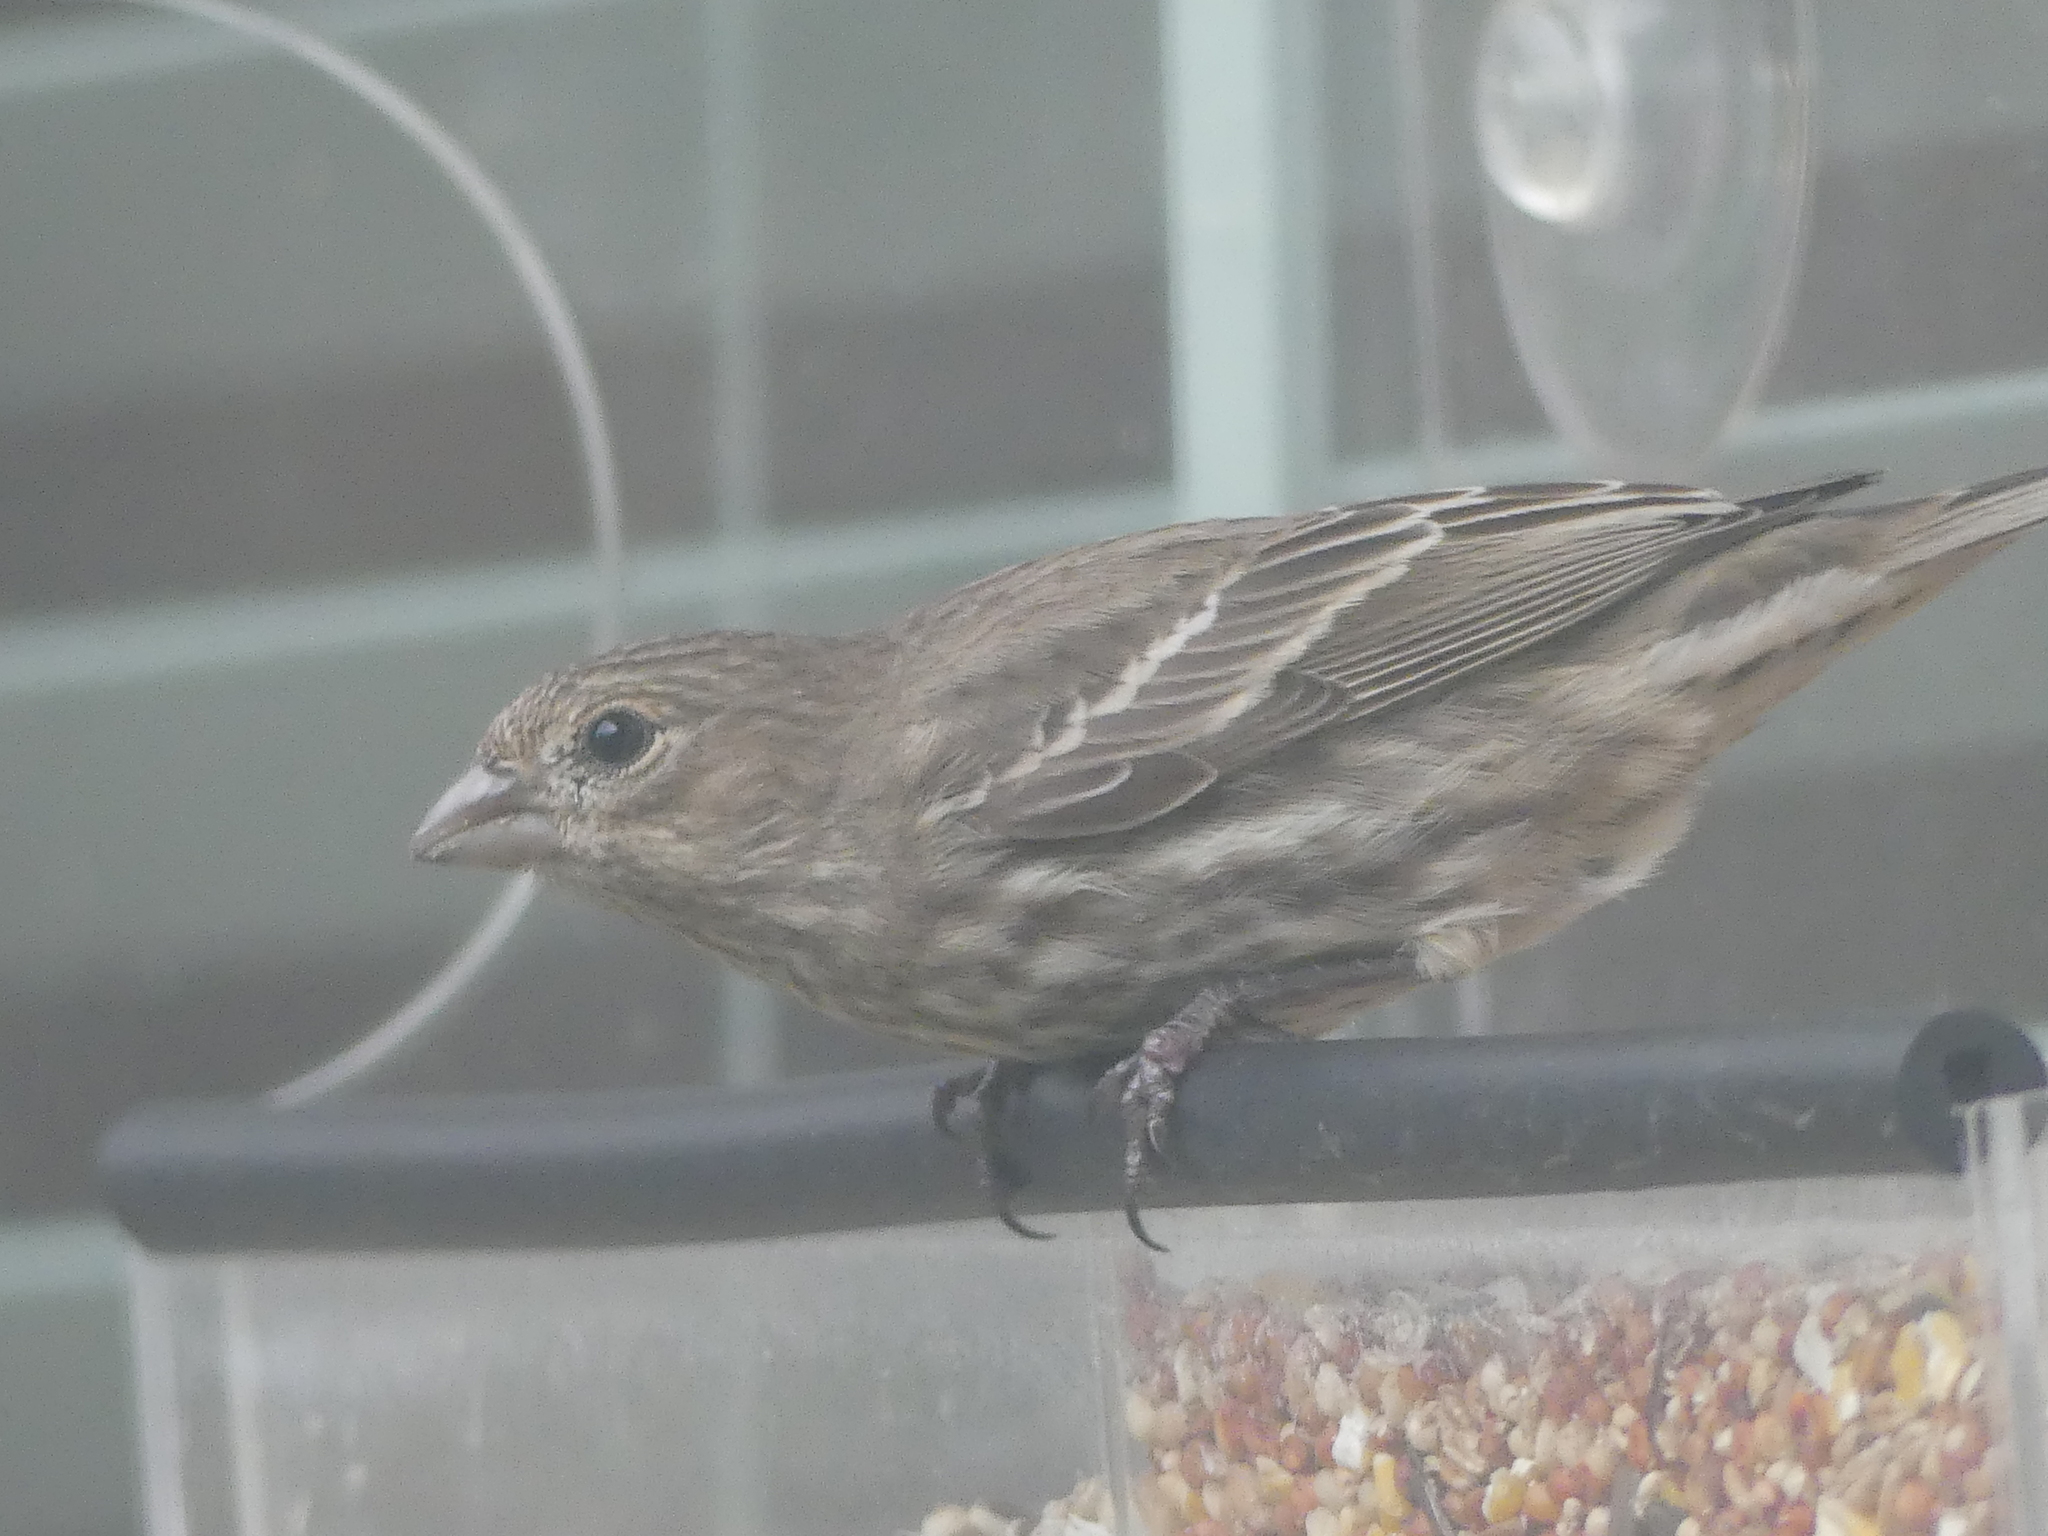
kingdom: Animalia
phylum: Chordata
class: Aves
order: Passeriformes
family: Fringillidae
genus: Haemorhous
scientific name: Haemorhous mexicanus
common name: House finch
